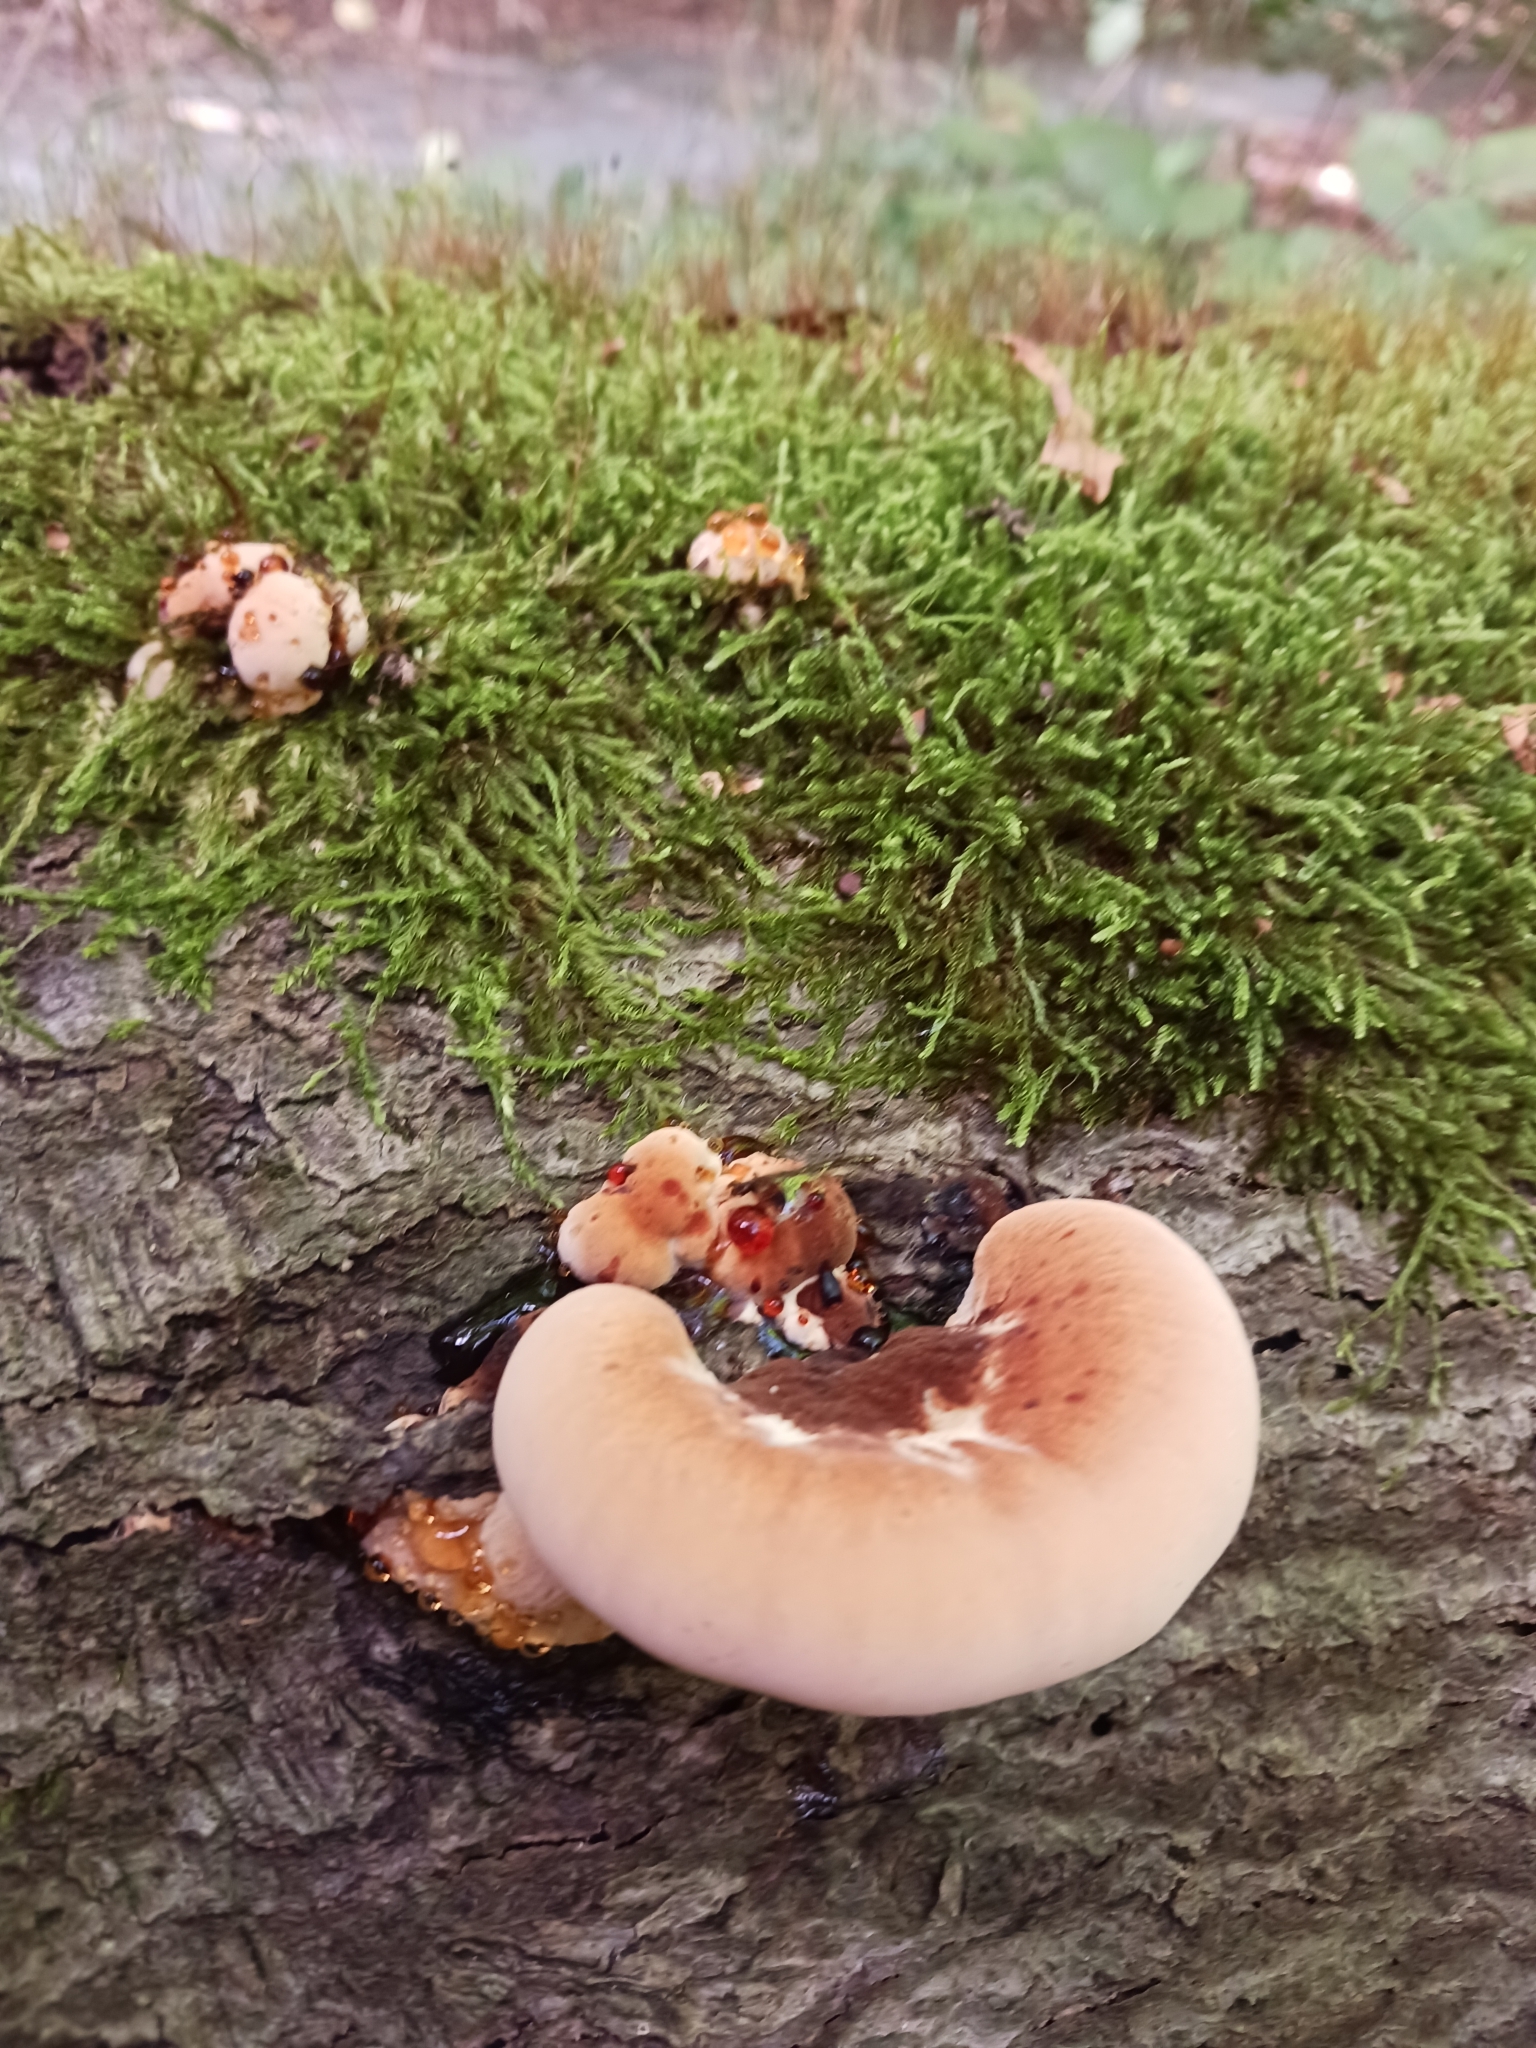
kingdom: Fungi
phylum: Basidiomycota
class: Agaricomycetes
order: Polyporales
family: Ischnodermataceae
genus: Ischnoderma
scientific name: Ischnoderma resinosum
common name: Resinous polypore
